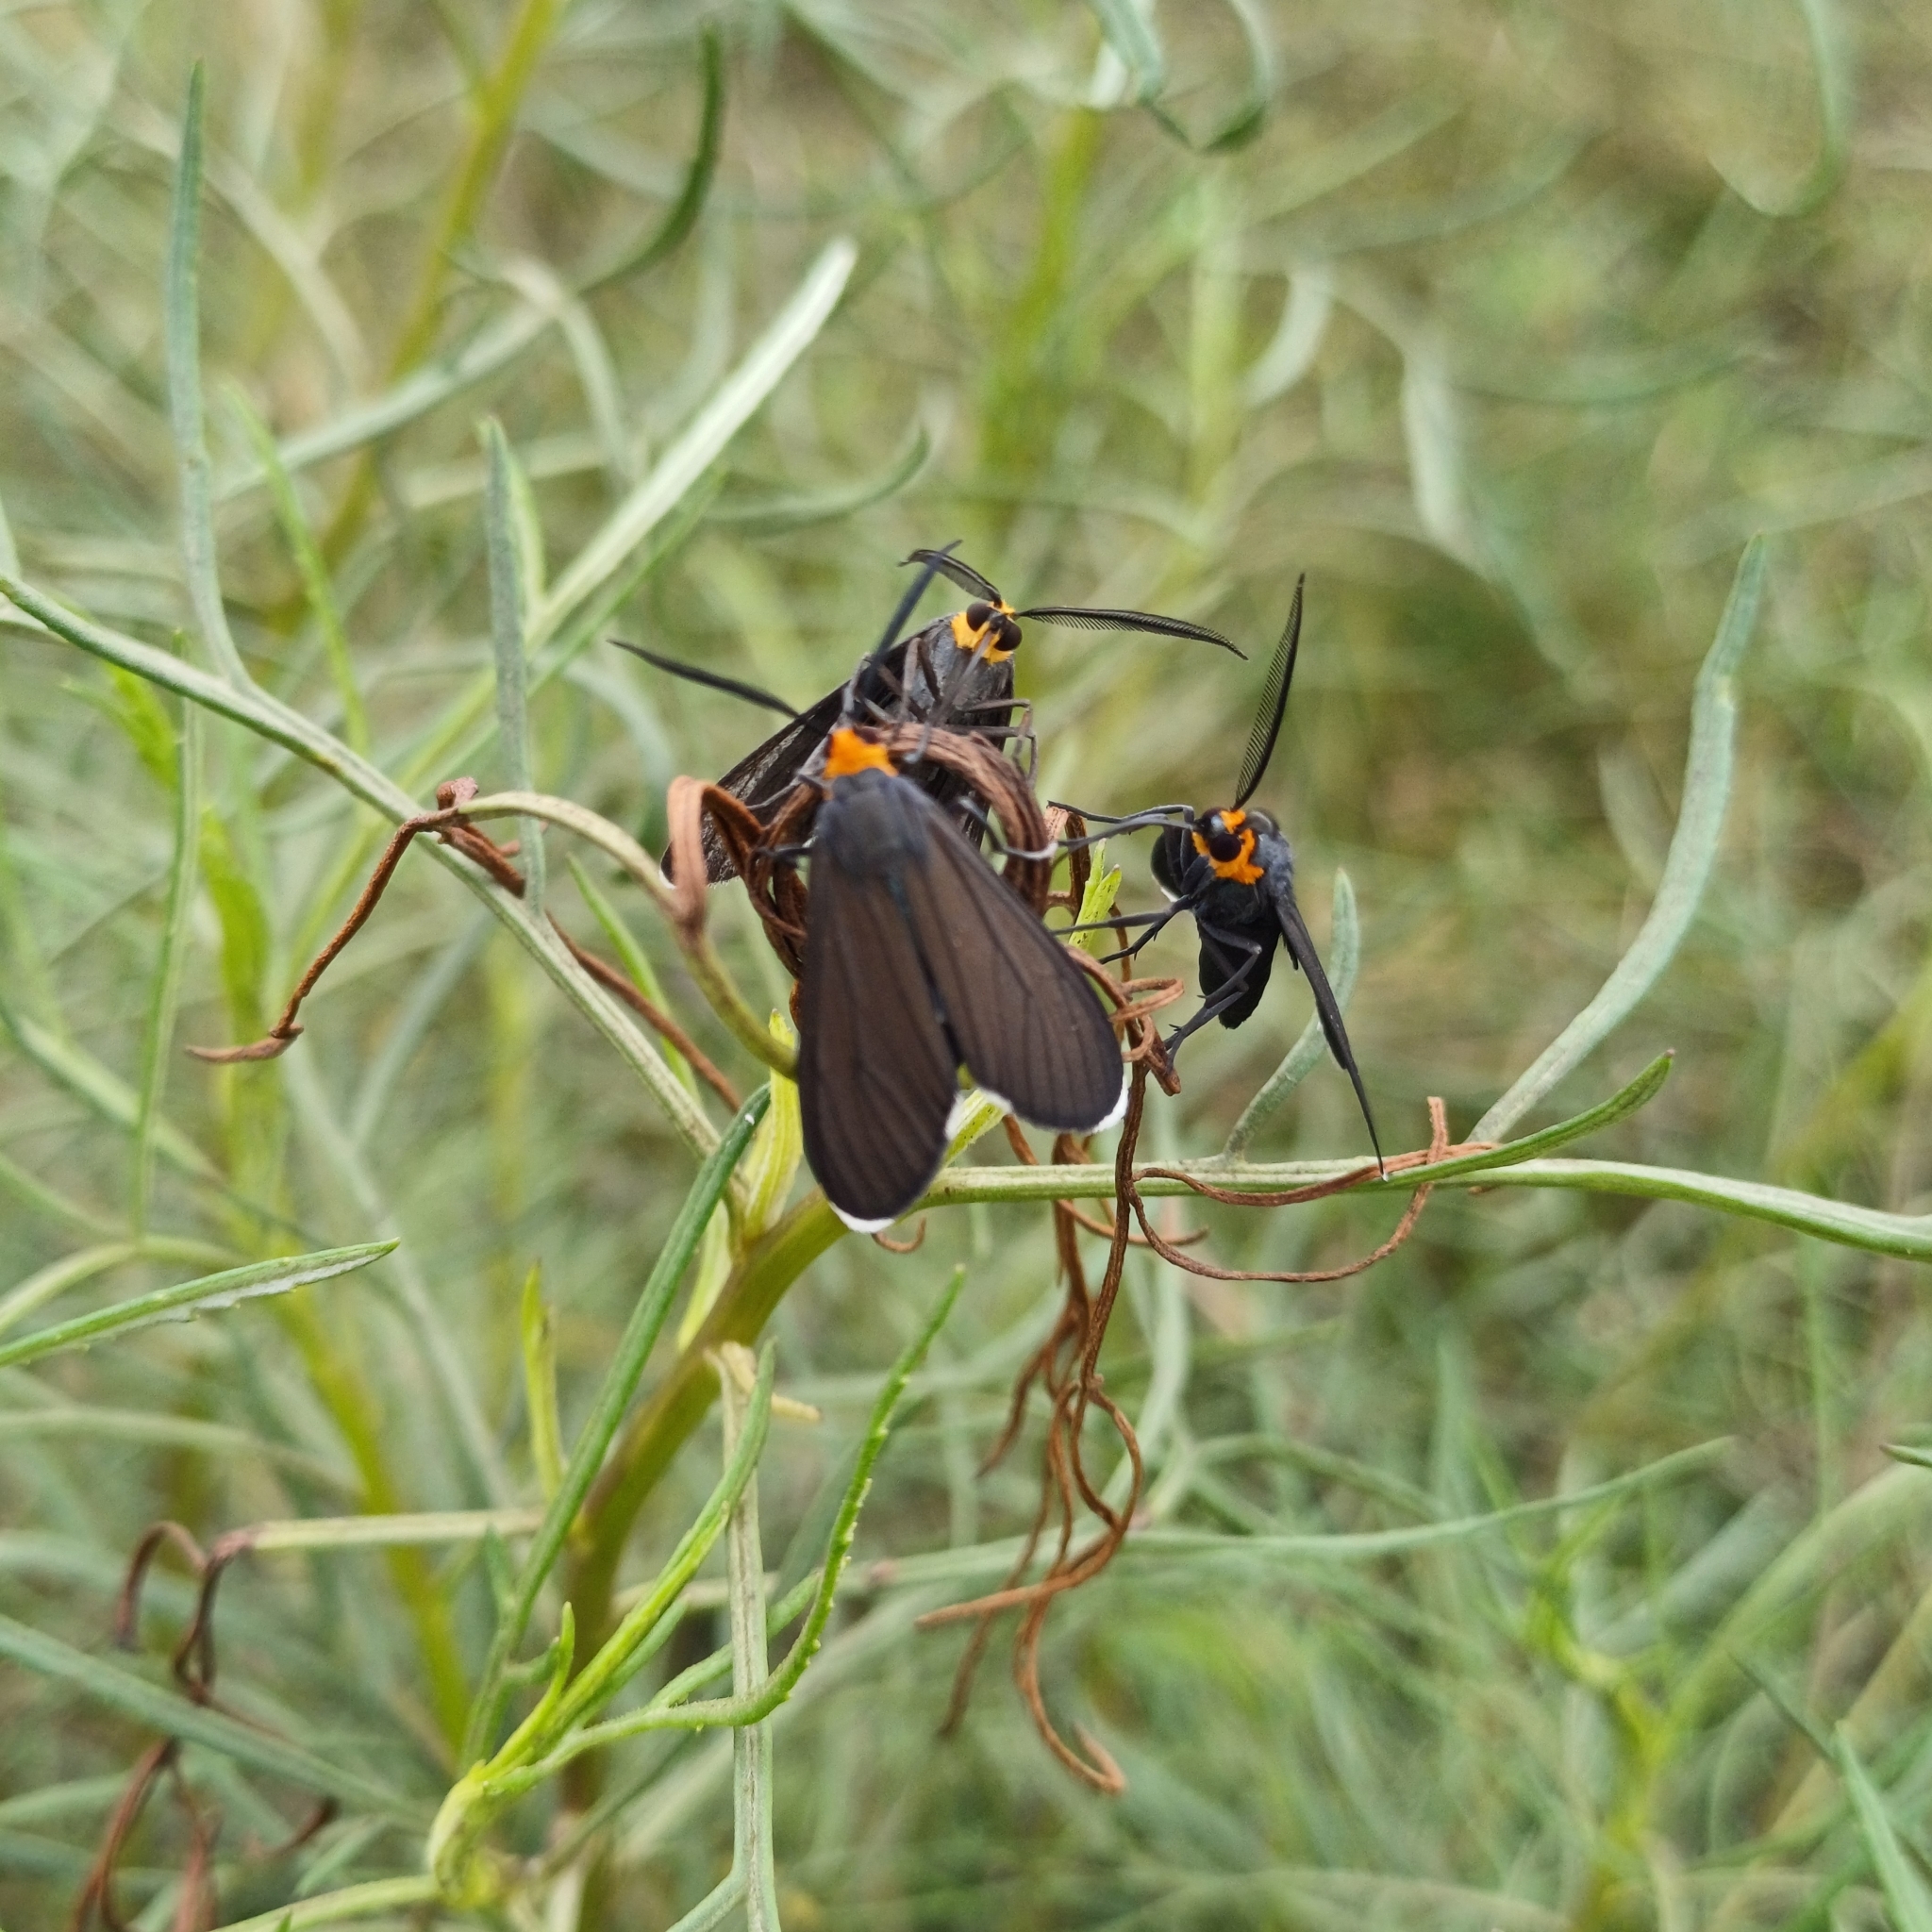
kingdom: Animalia
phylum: Arthropoda
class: Insecta
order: Lepidoptera
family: Erebidae
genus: Ctenucha
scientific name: Ctenucha rubriceps
